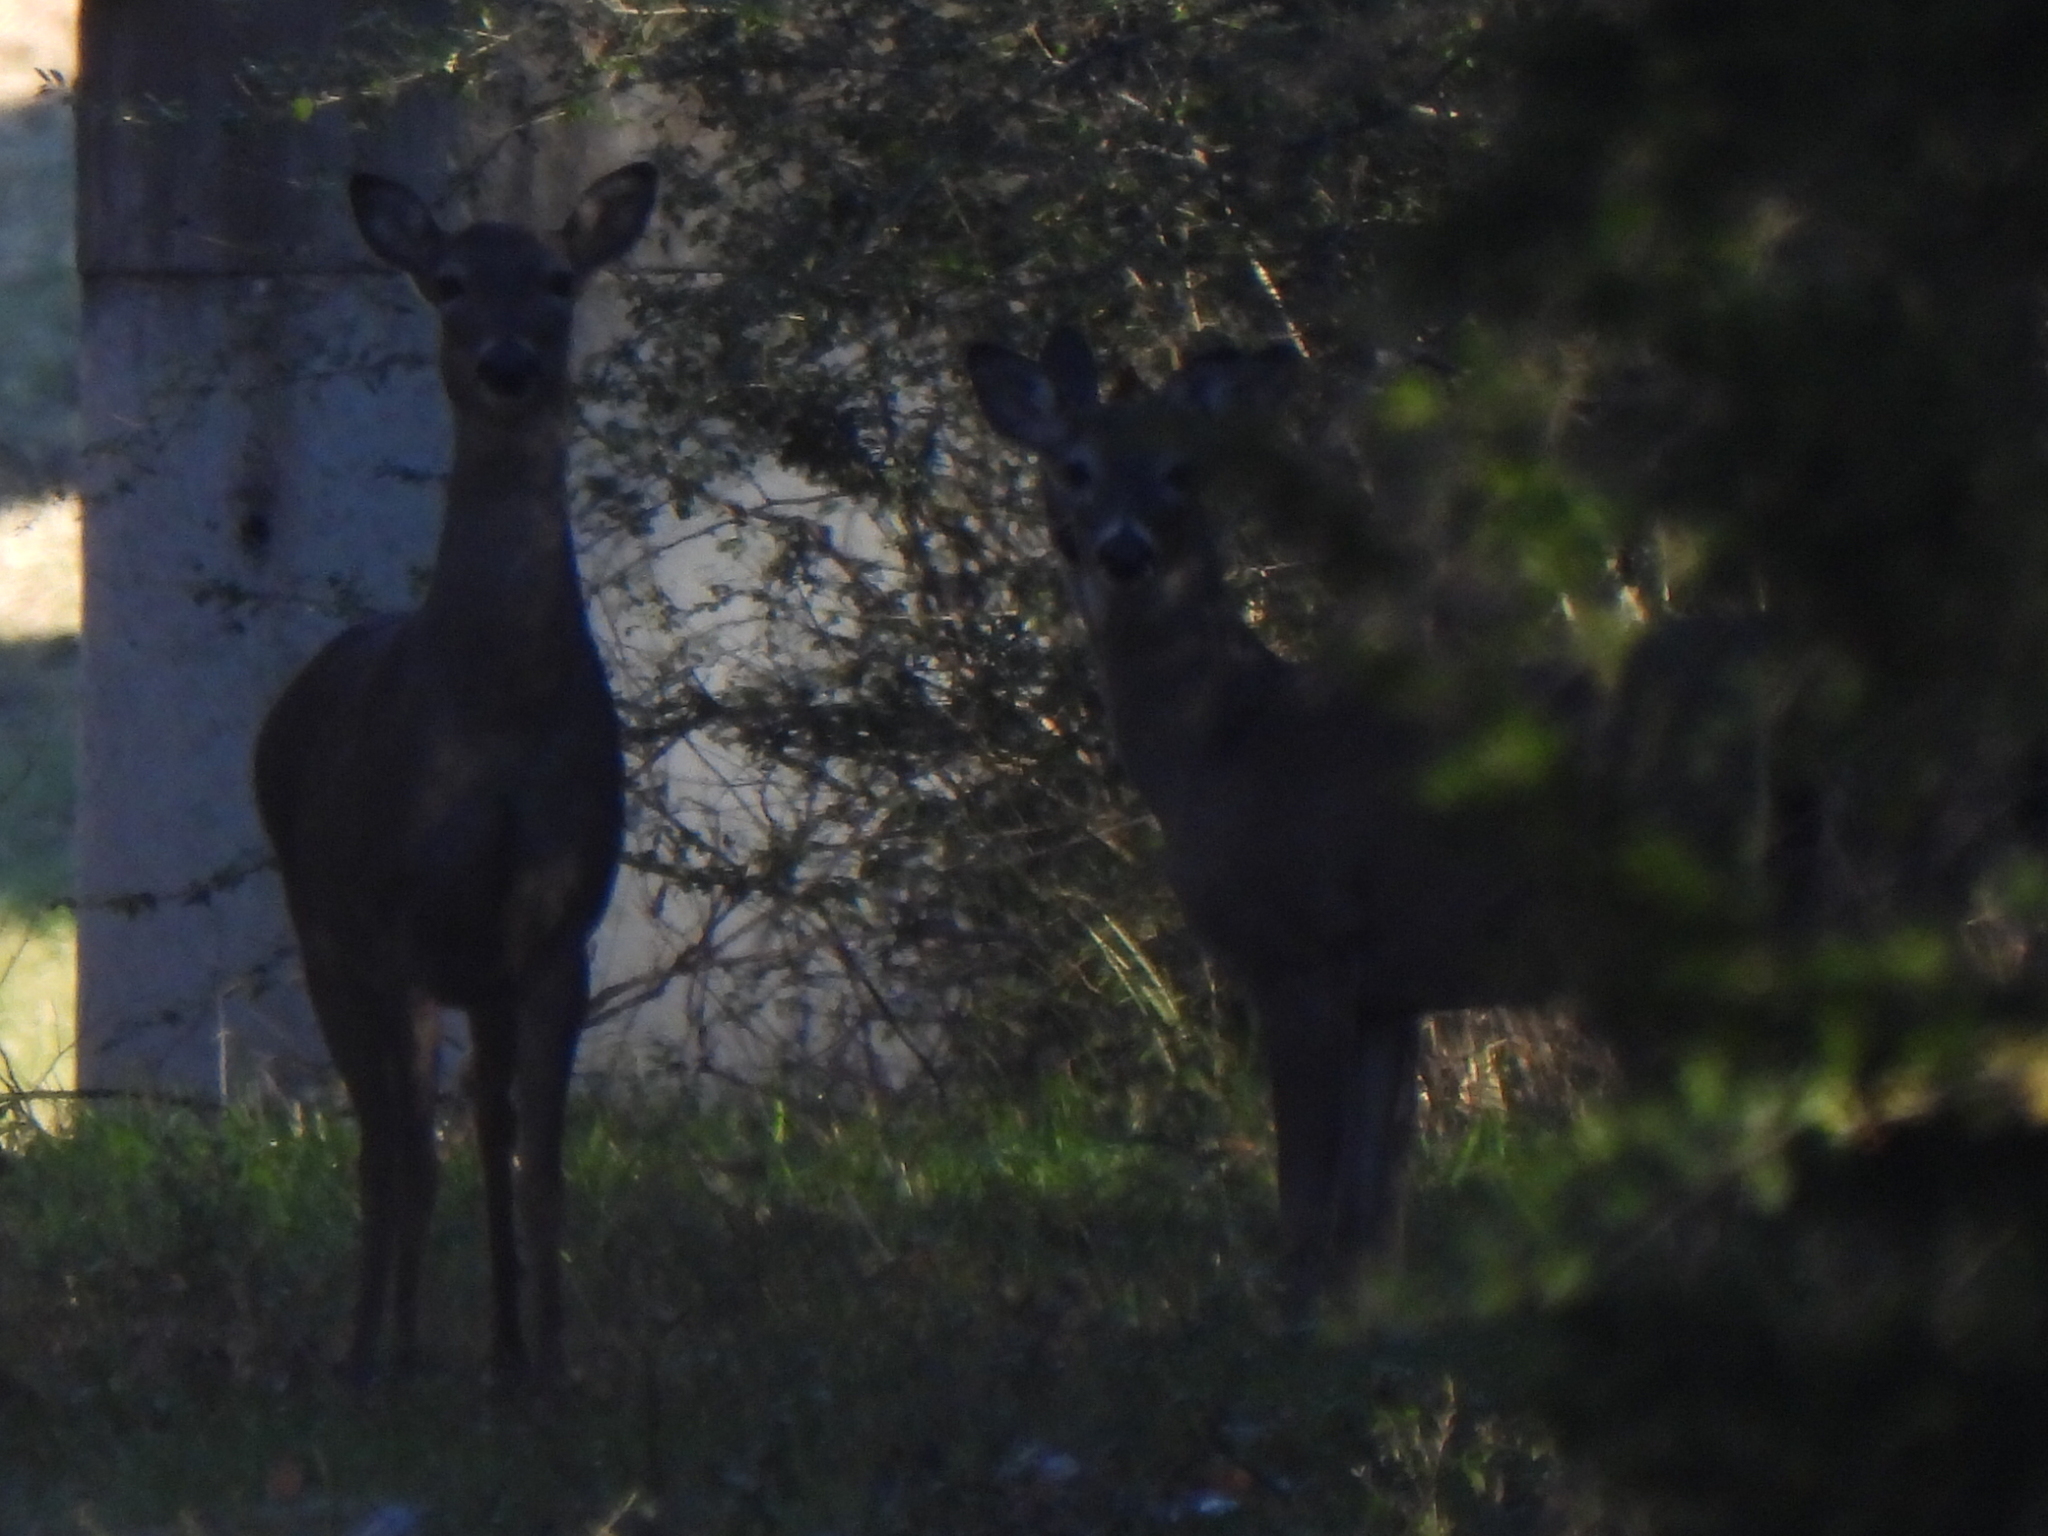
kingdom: Animalia
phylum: Chordata
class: Mammalia
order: Artiodactyla
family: Cervidae
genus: Odocoileus
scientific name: Odocoileus virginianus
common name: White-tailed deer
